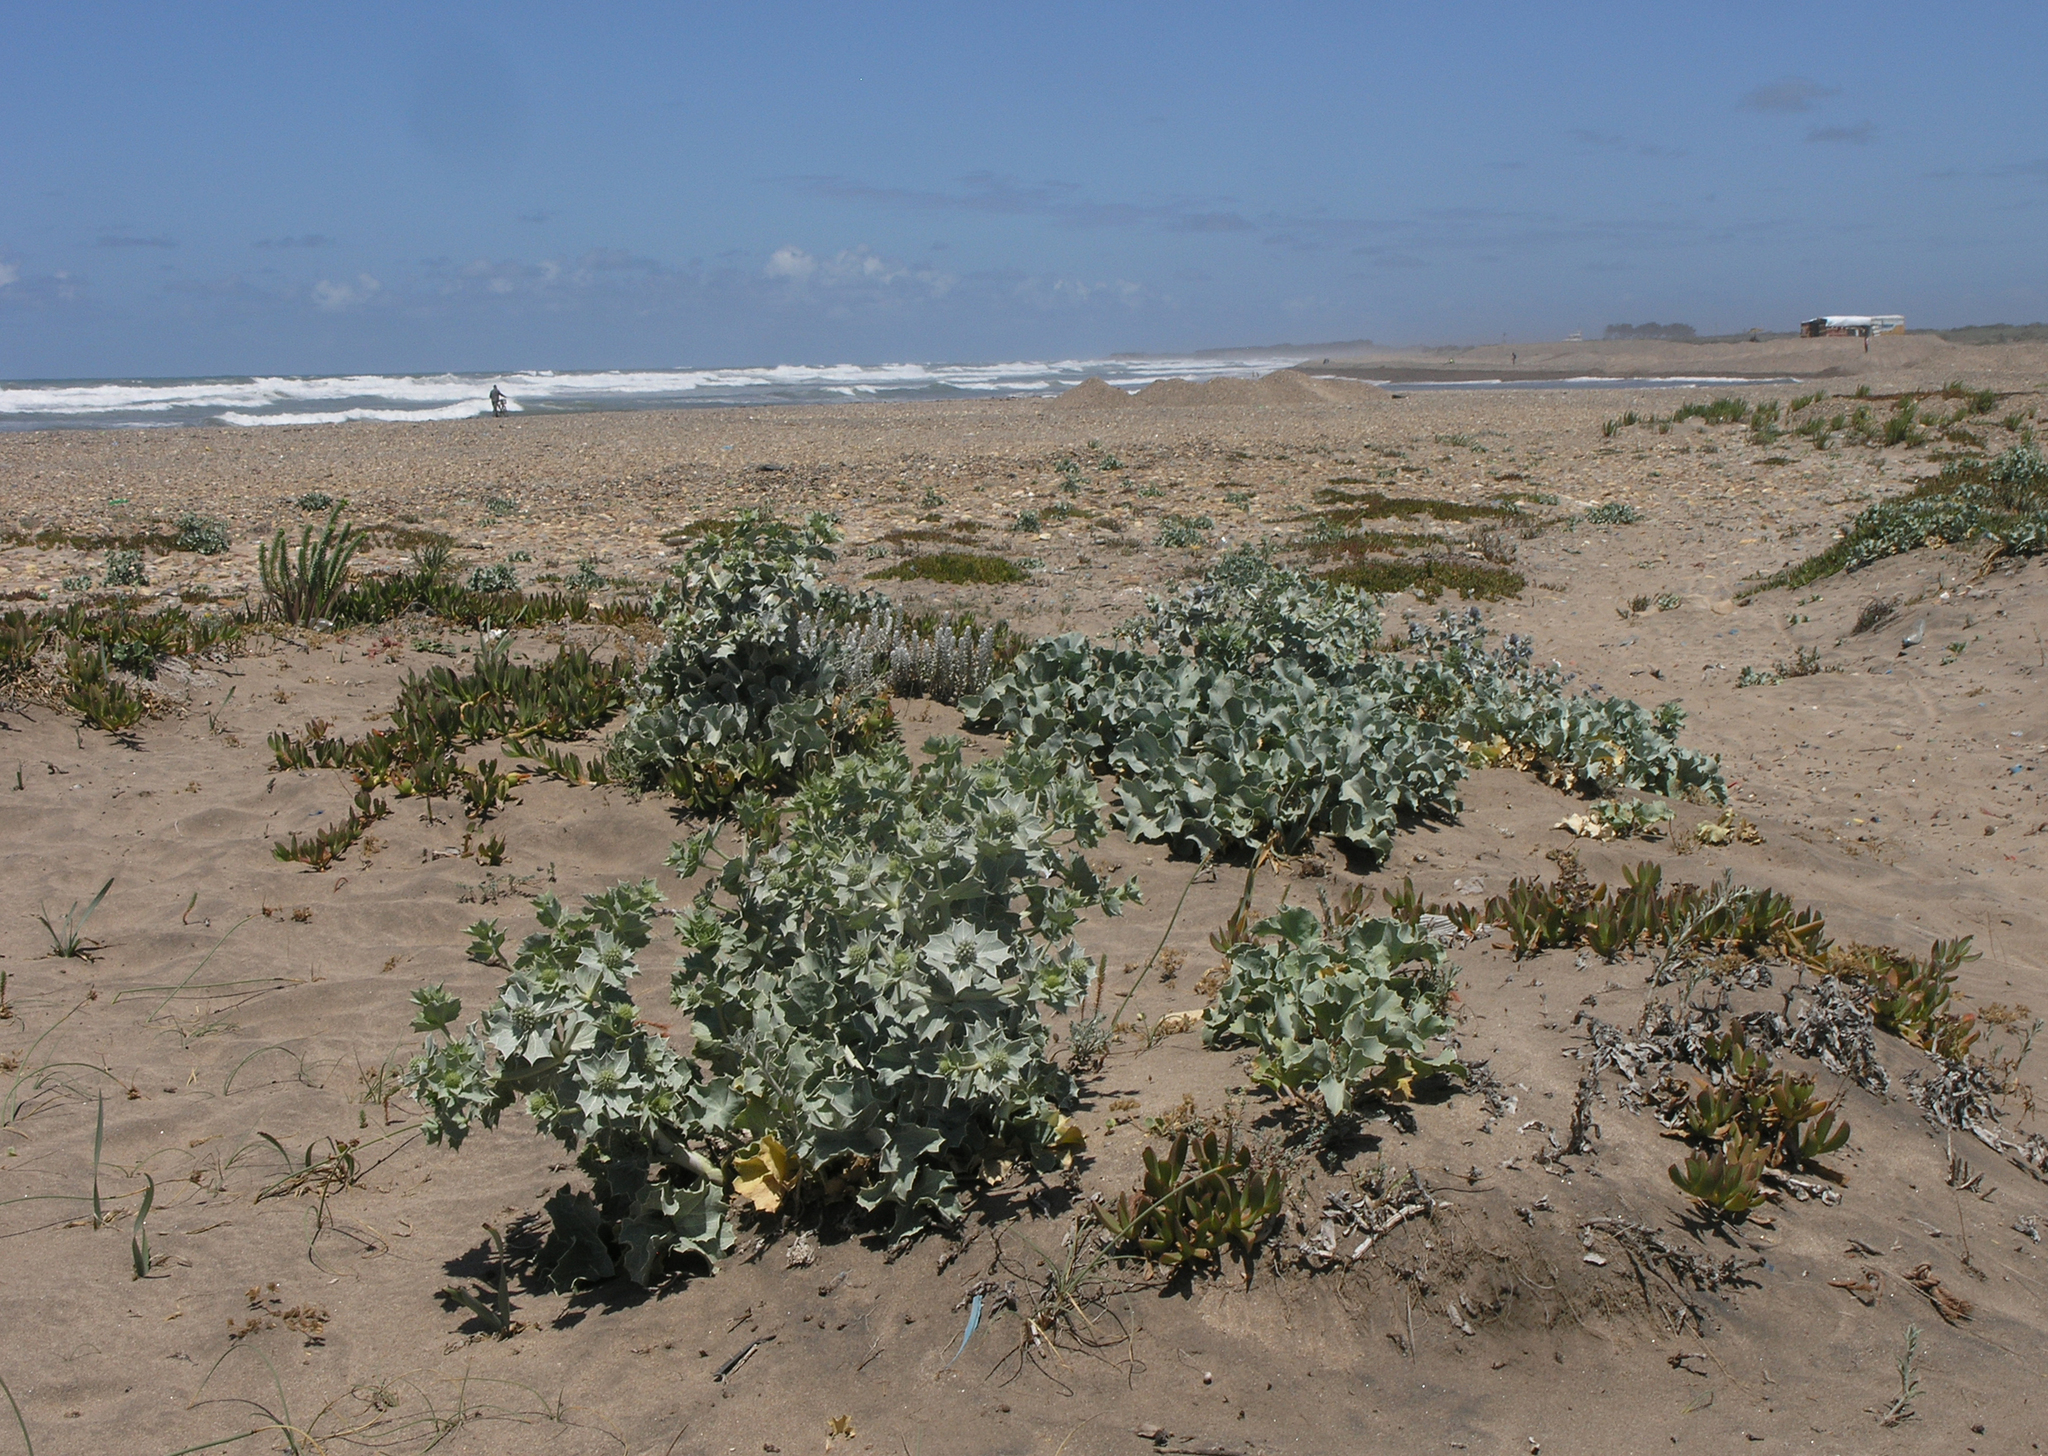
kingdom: Plantae
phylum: Tracheophyta
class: Magnoliopsida
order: Apiales
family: Apiaceae
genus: Eryngium
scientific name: Eryngium maritimum
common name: Sea-holly
